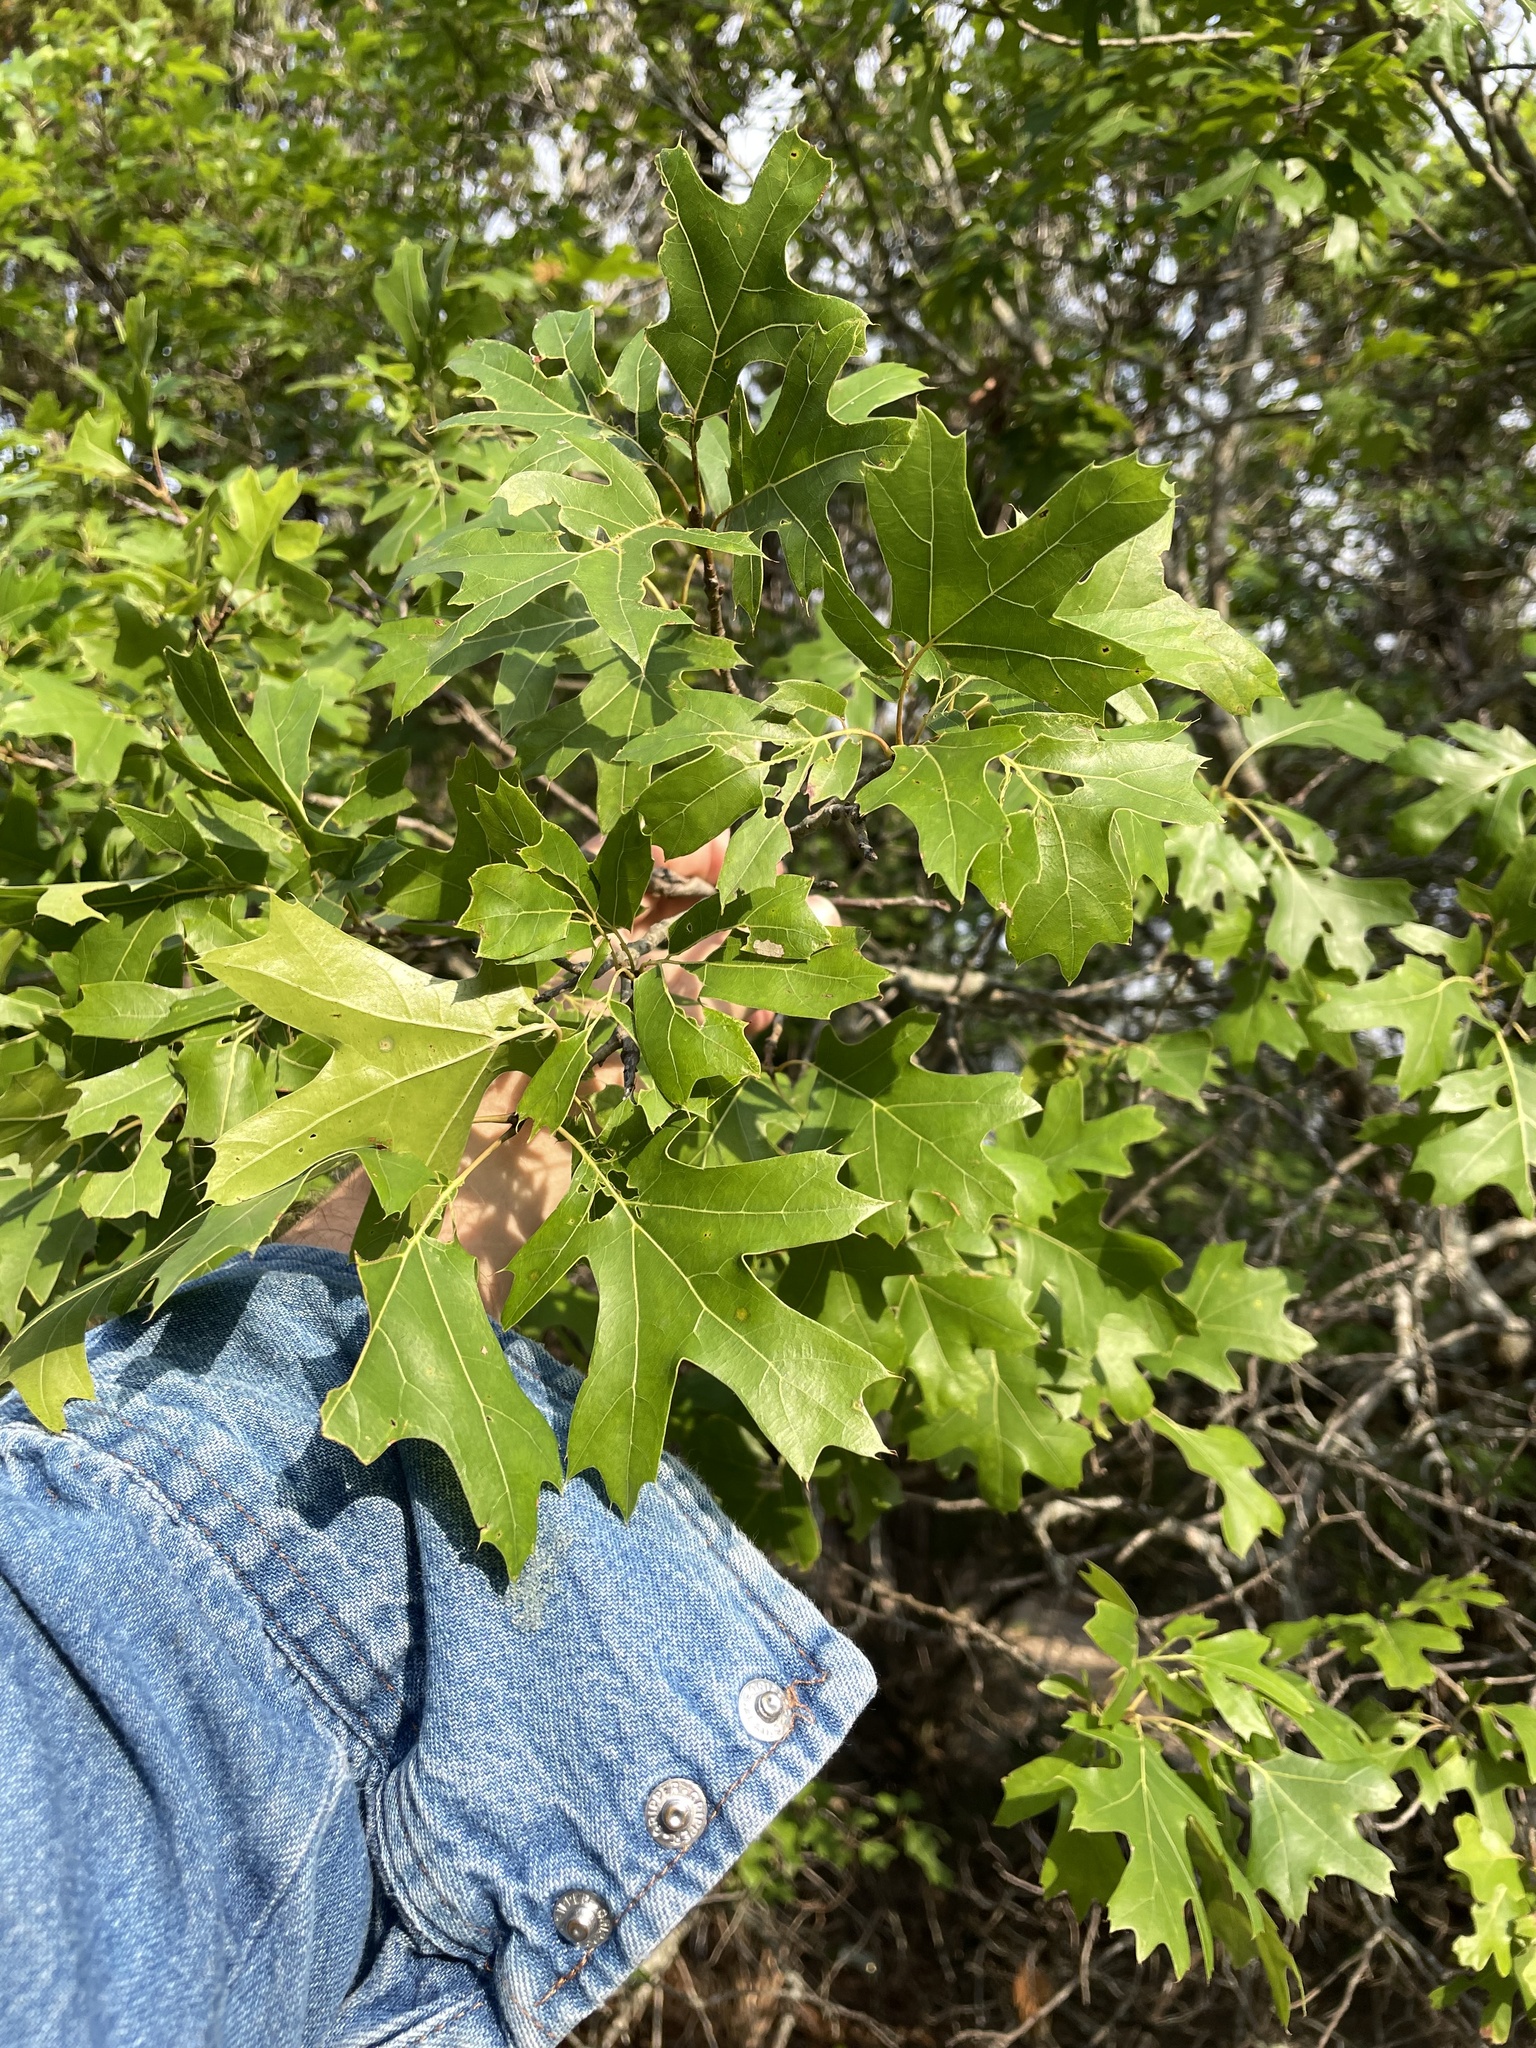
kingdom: Plantae
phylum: Tracheophyta
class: Magnoliopsida
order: Fagales
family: Fagaceae
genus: Quercus
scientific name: Quercus buckleyi
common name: Buckley oak
